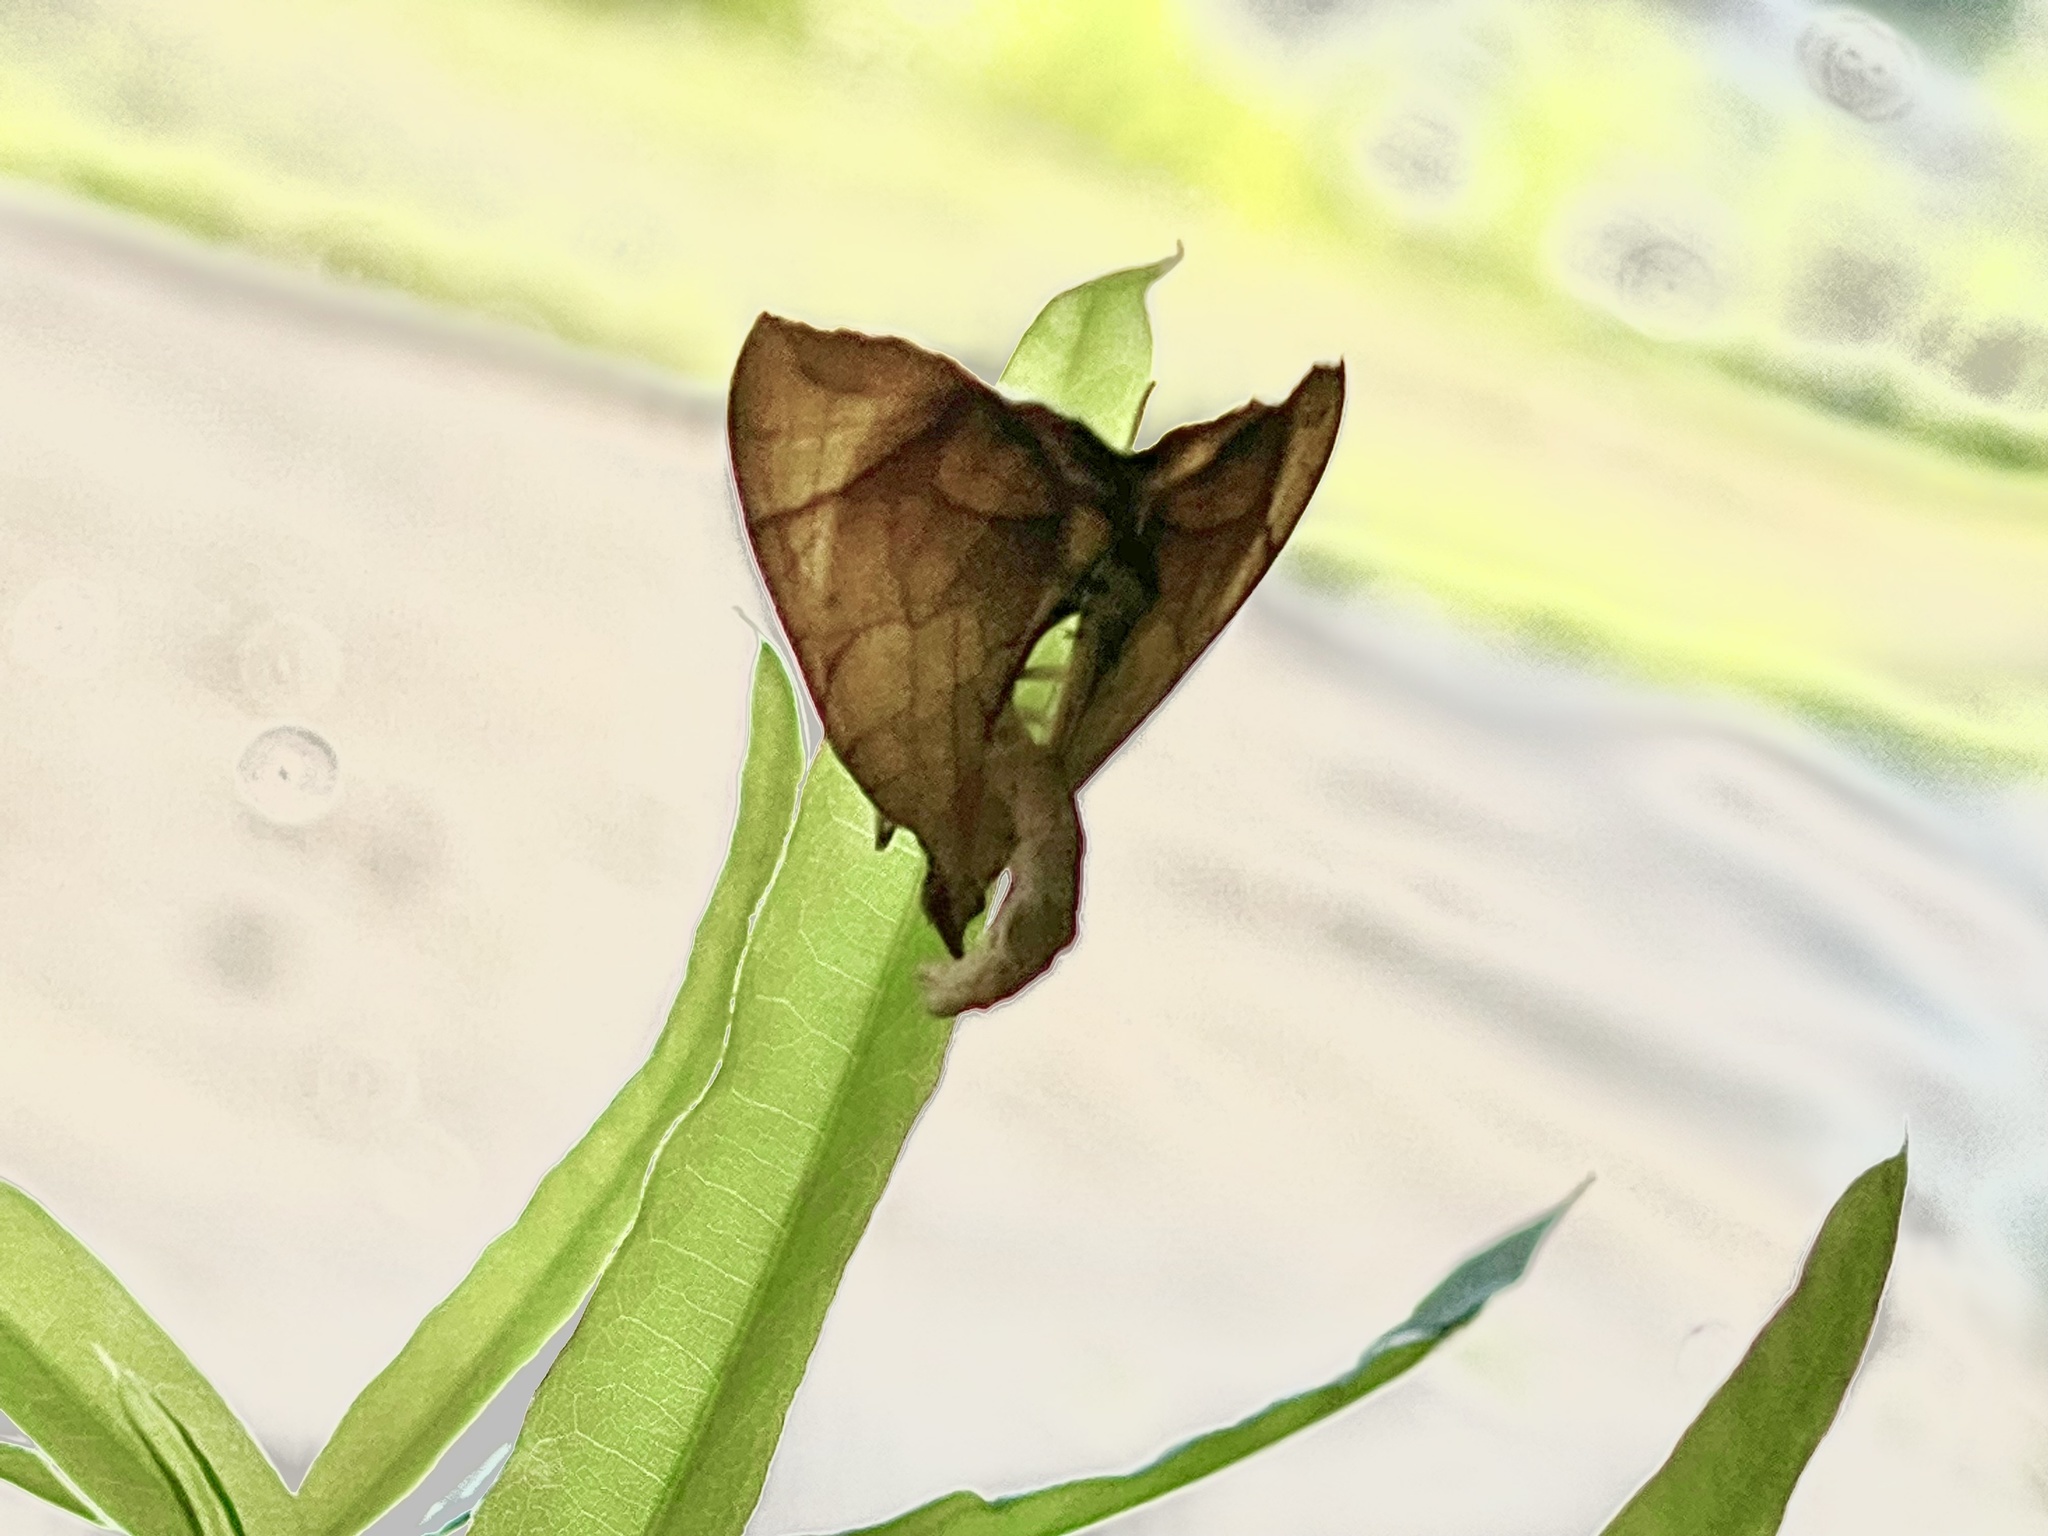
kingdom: Animalia
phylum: Arthropoda
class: Insecta
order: Lepidoptera
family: Geometridae
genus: Eulithis
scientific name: Eulithis
